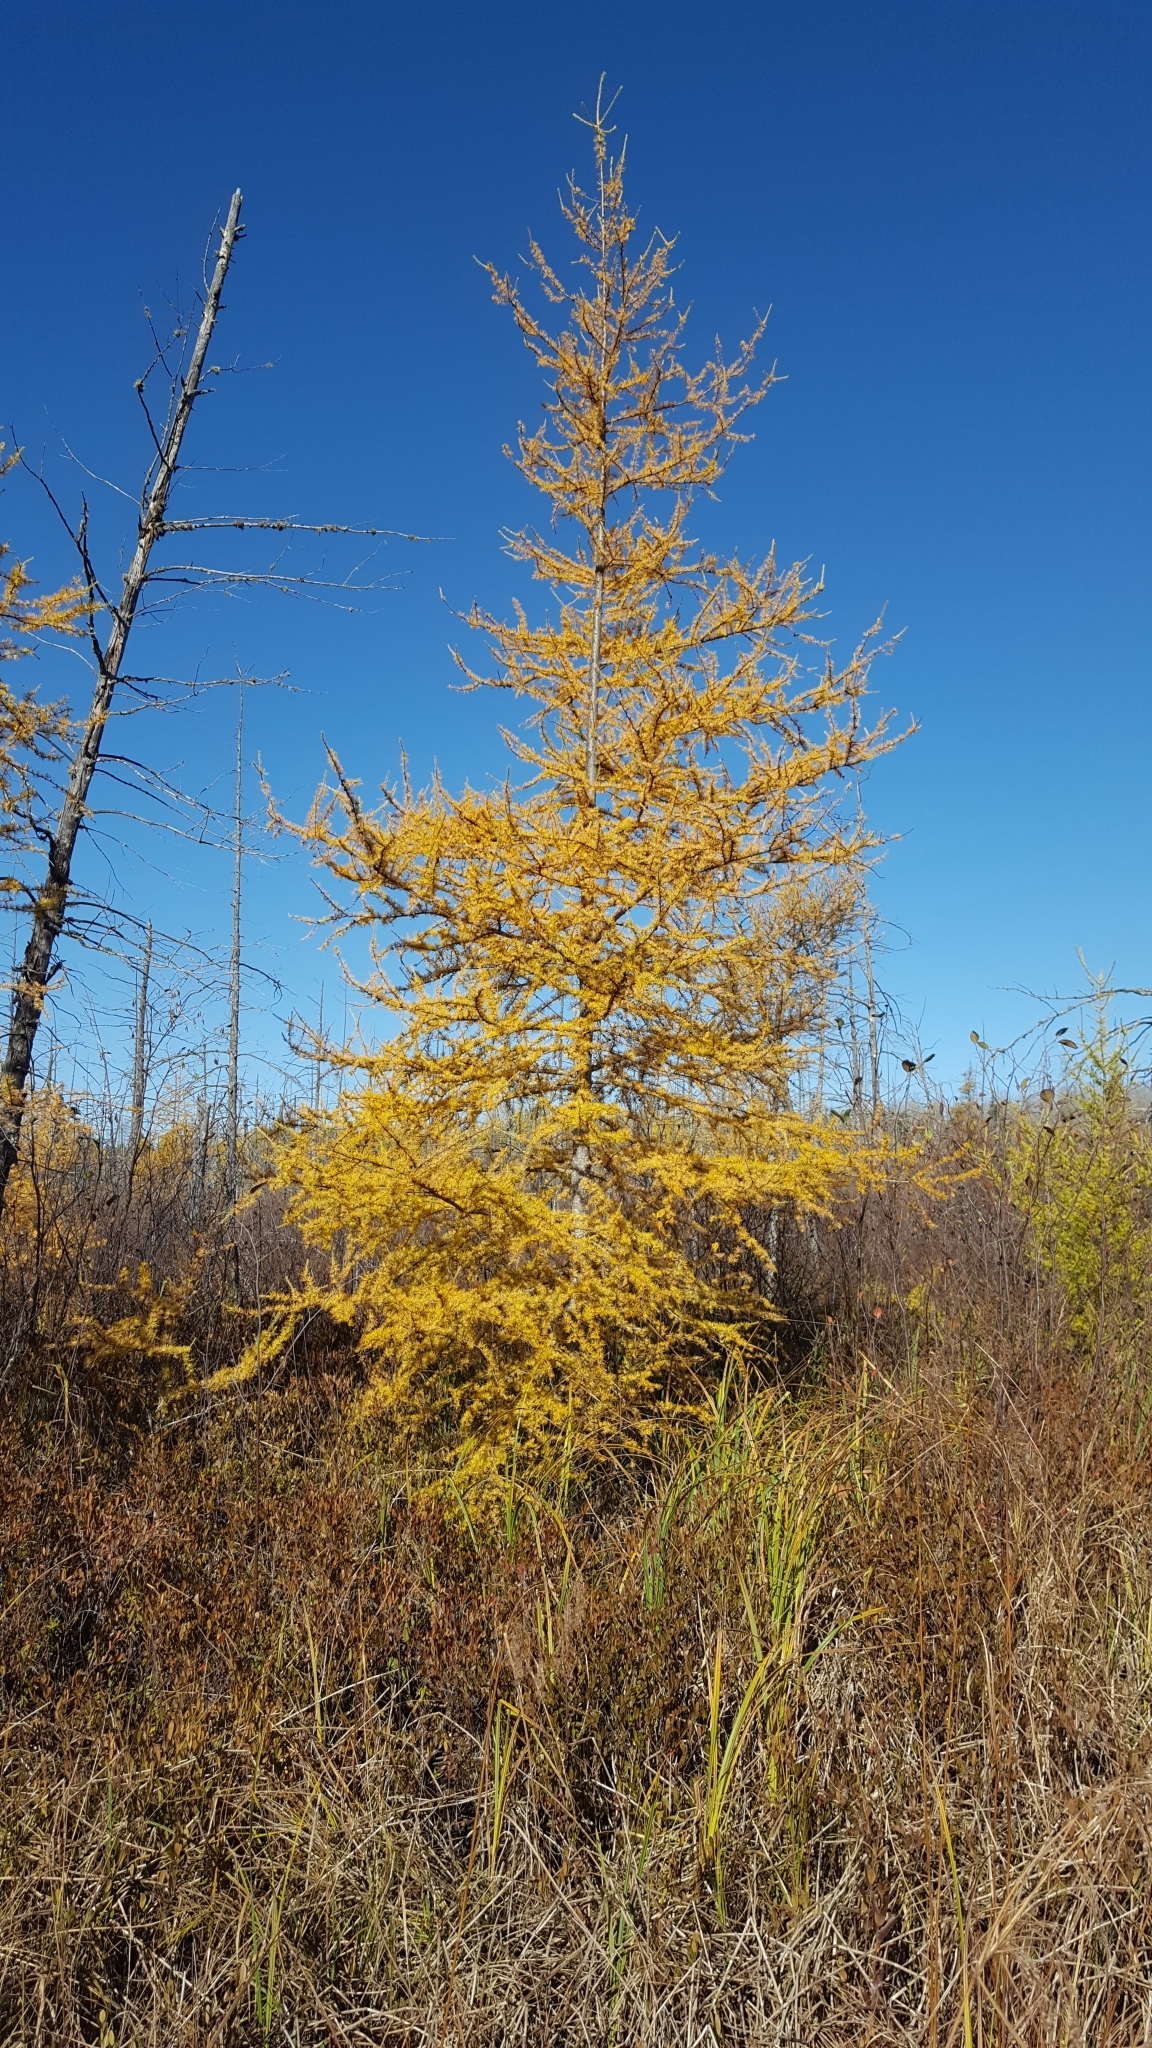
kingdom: Plantae
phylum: Tracheophyta
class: Pinopsida
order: Pinales
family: Pinaceae
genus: Larix
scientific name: Larix laricina
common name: American larch
